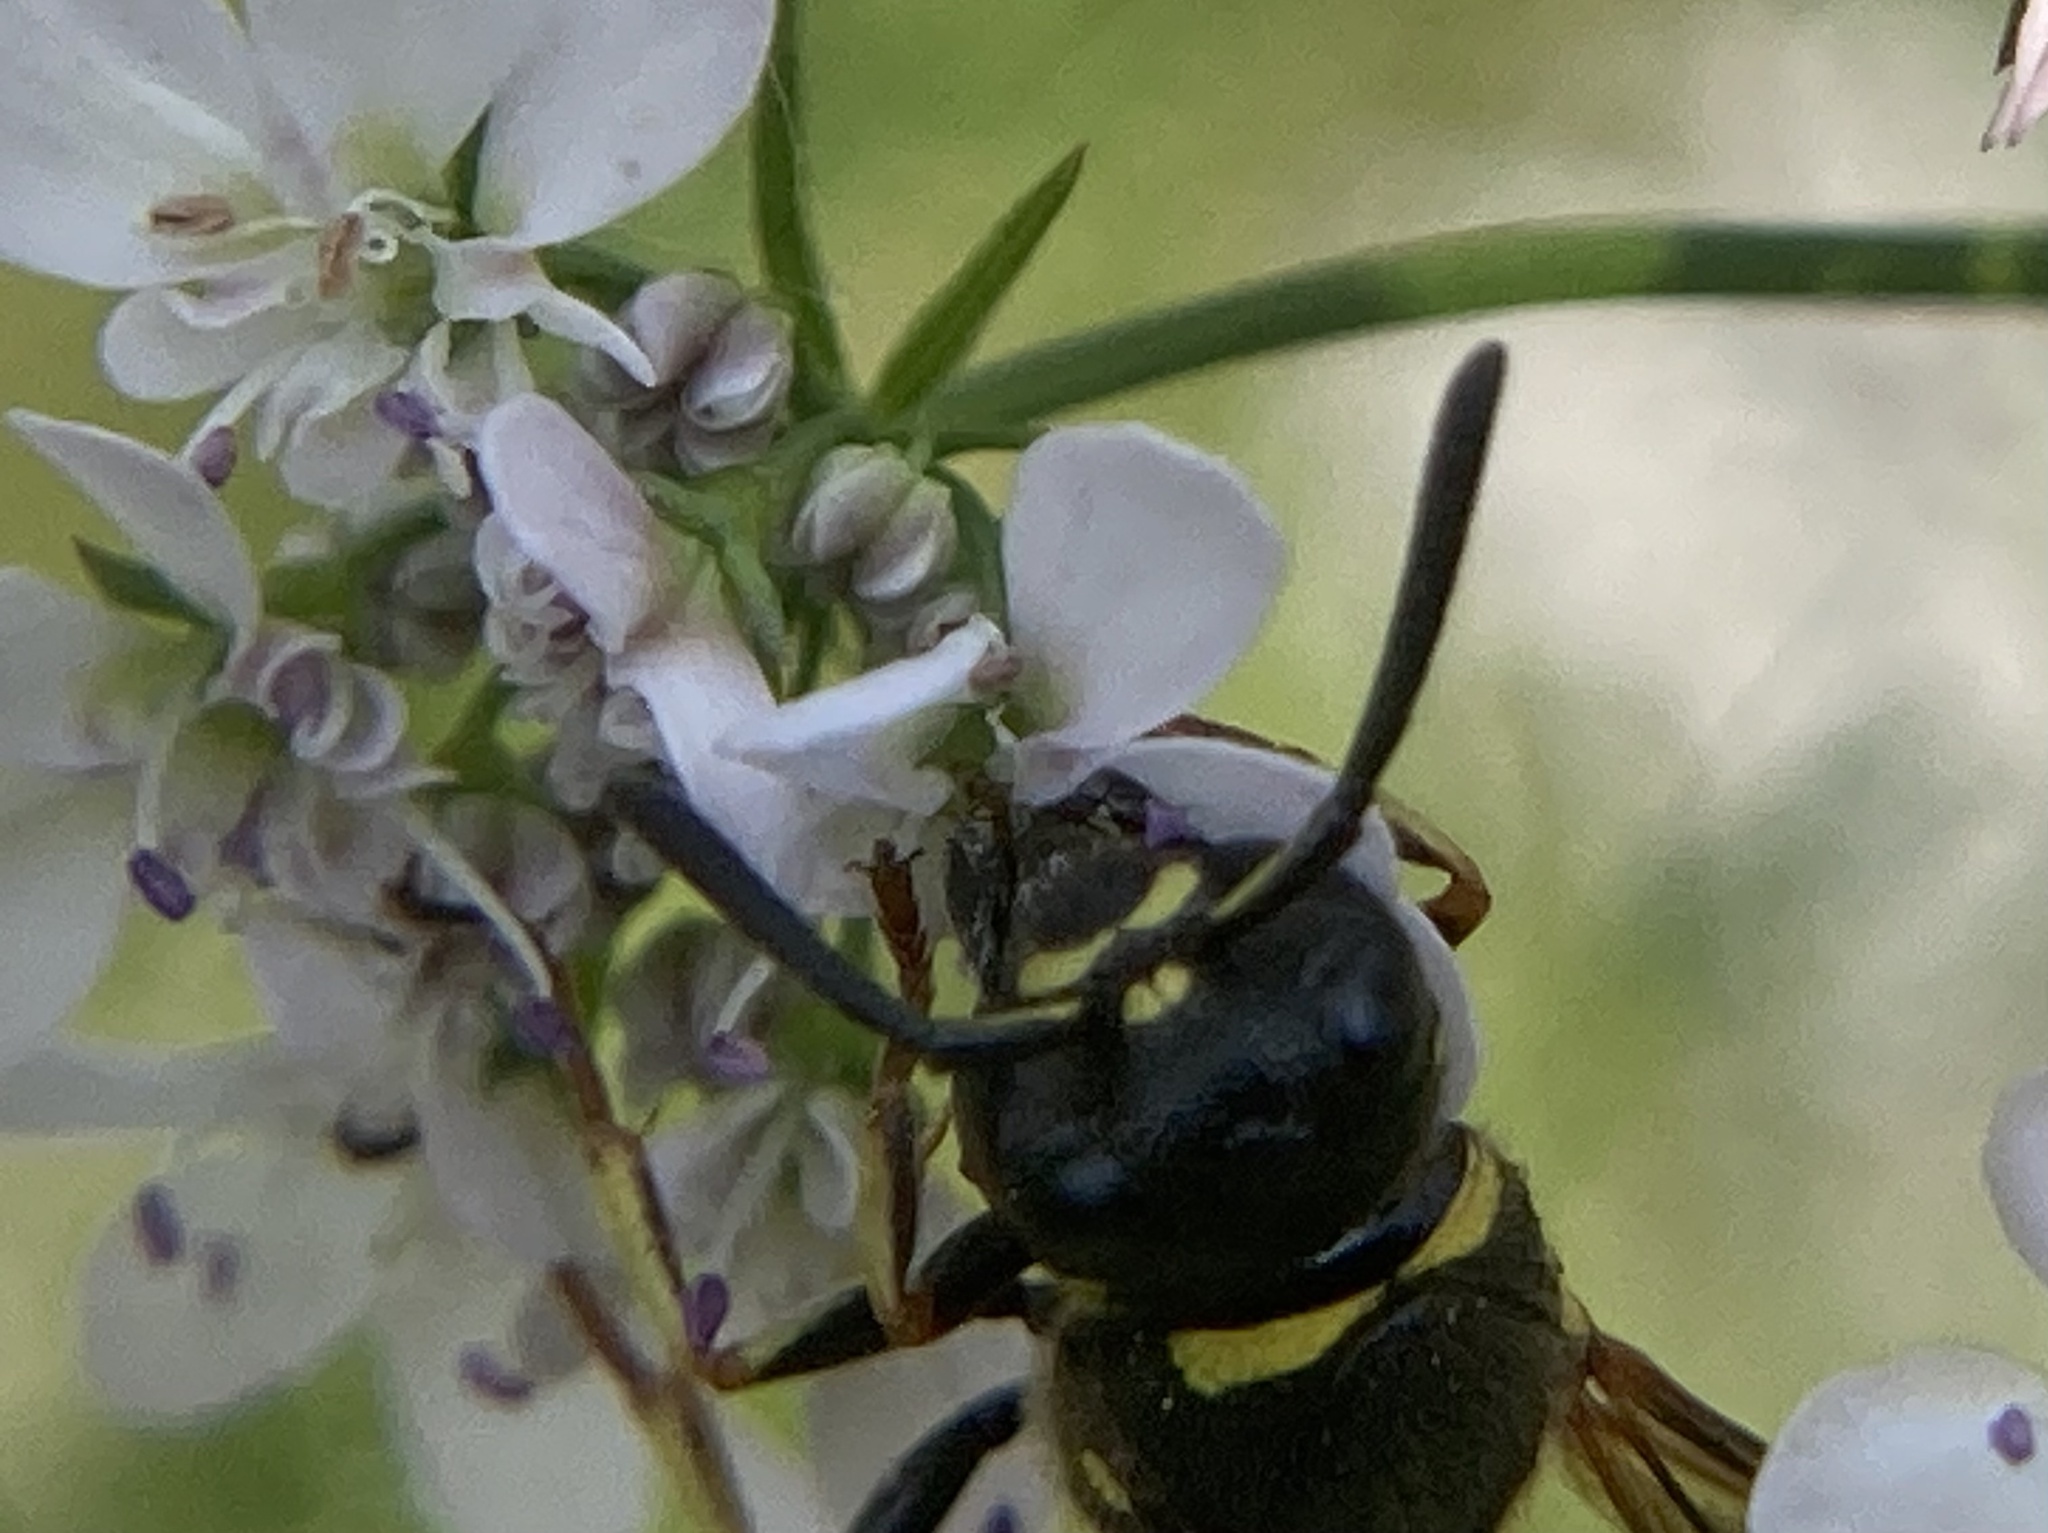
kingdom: Animalia
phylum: Arthropoda
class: Insecta
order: Hymenoptera
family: Eumenidae
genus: Euodynerus
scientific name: Euodynerus foraminatus
